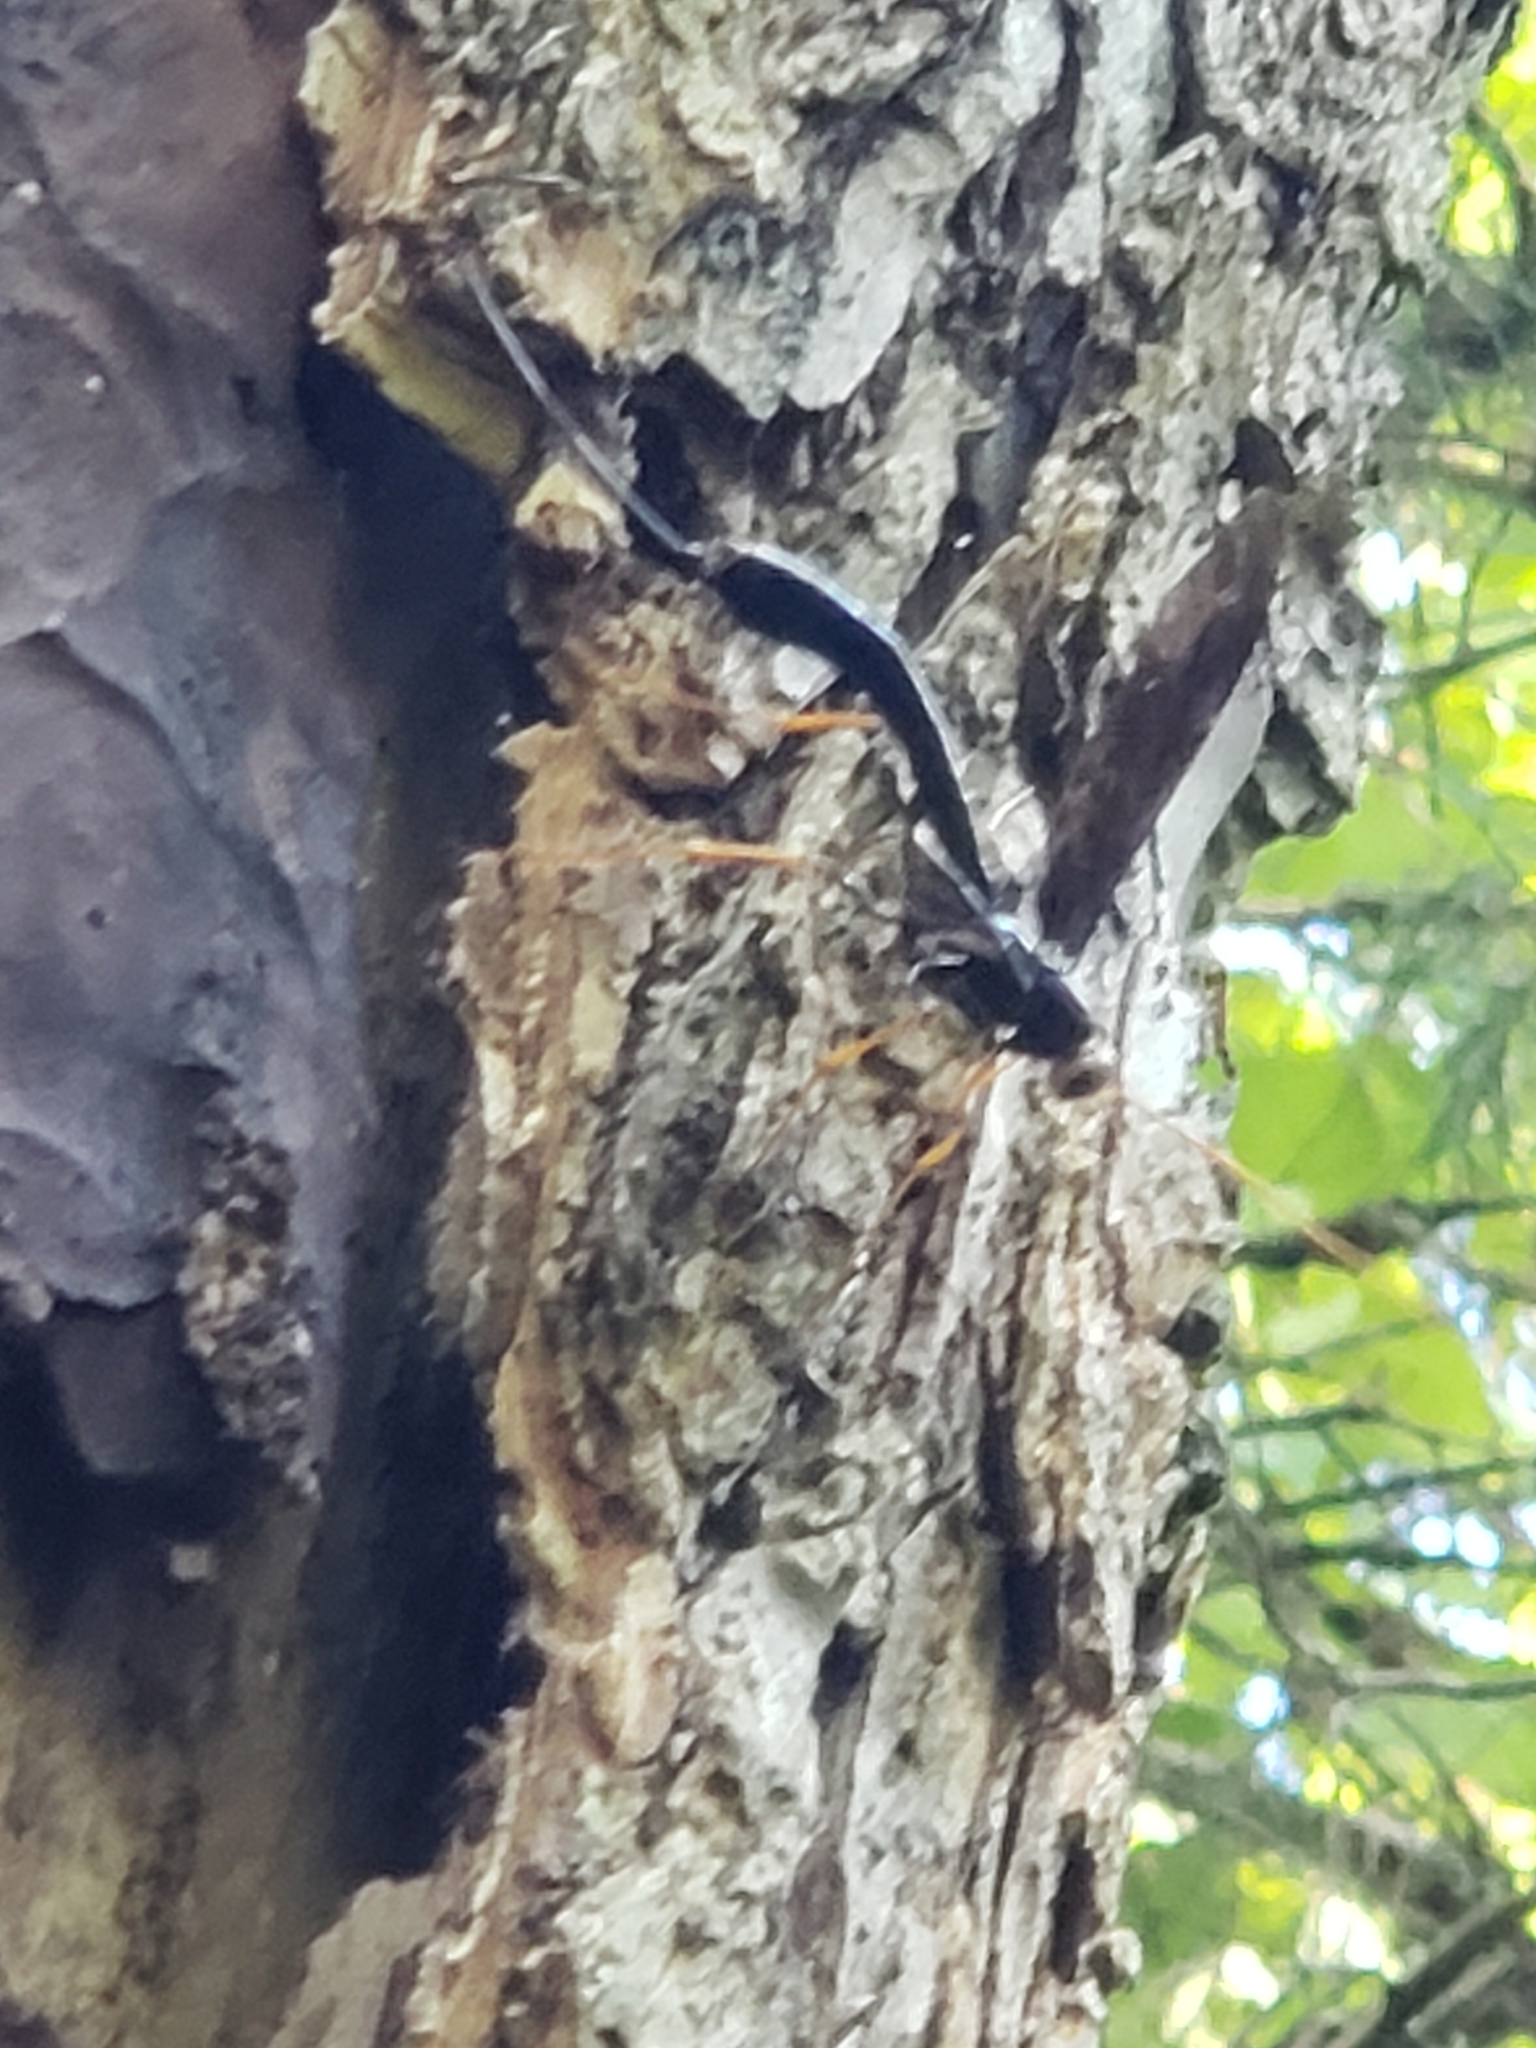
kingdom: Animalia
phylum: Arthropoda
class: Insecta
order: Hymenoptera
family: Ichneumonidae
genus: Megarhyssa
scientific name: Megarhyssa atrata
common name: Black giant ichneumonid wasp
